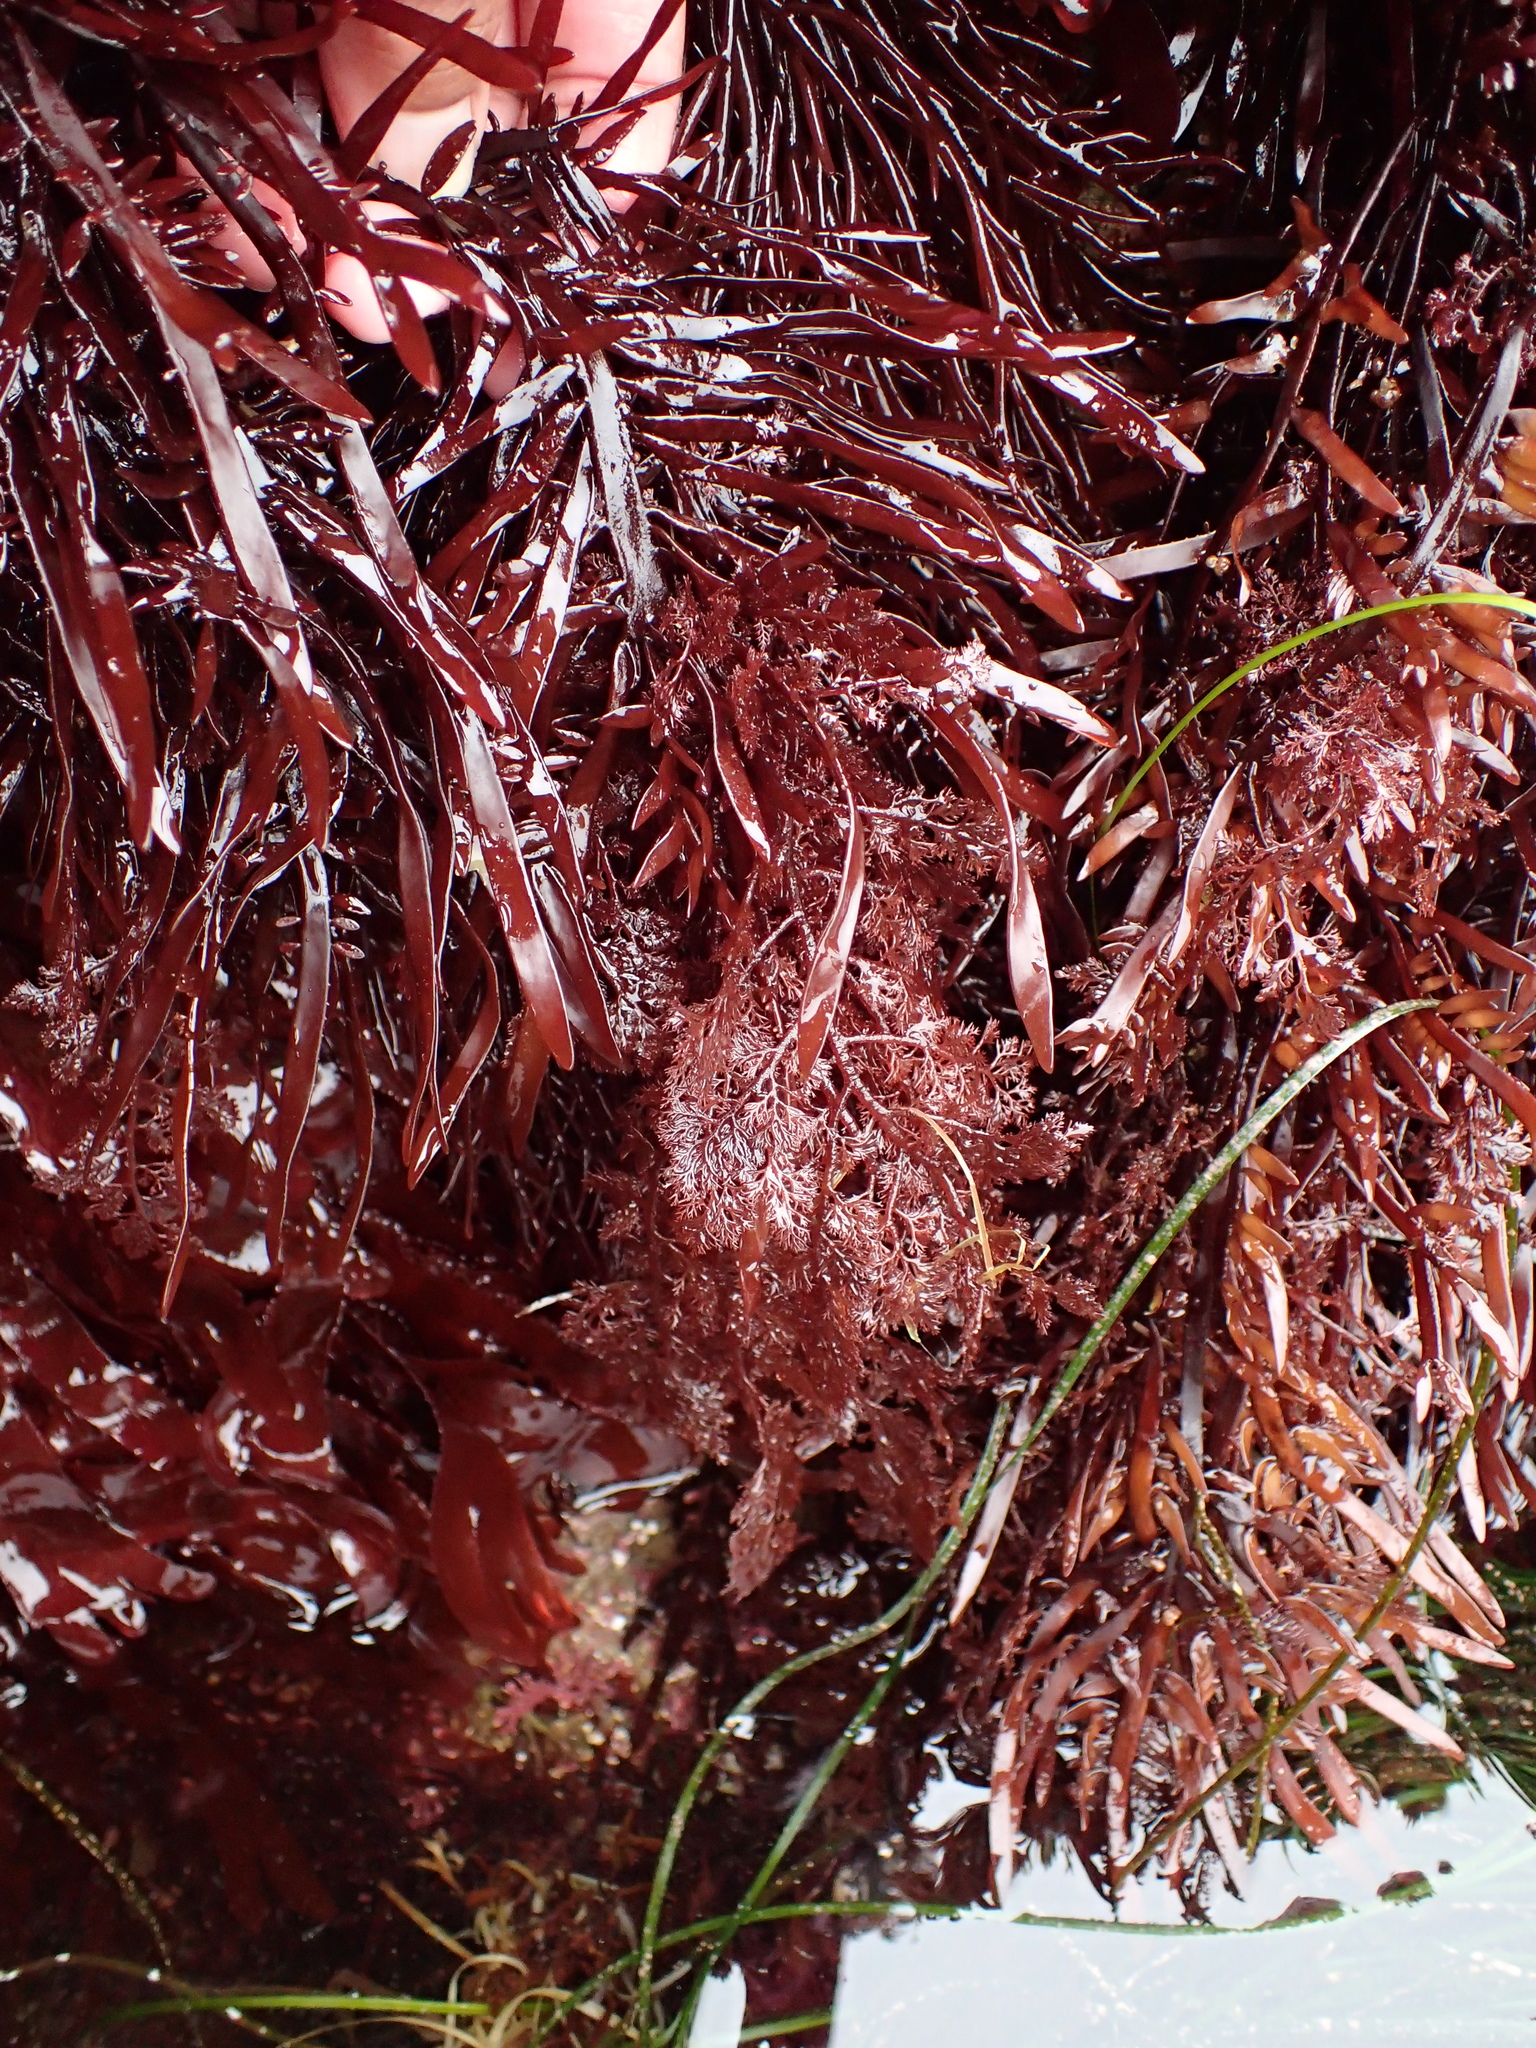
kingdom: Plantae
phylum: Rhodophyta
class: Florideophyceae
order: Ceramiales
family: Ceramiaceae
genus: Microcladia
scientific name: Microcladia coulteri
